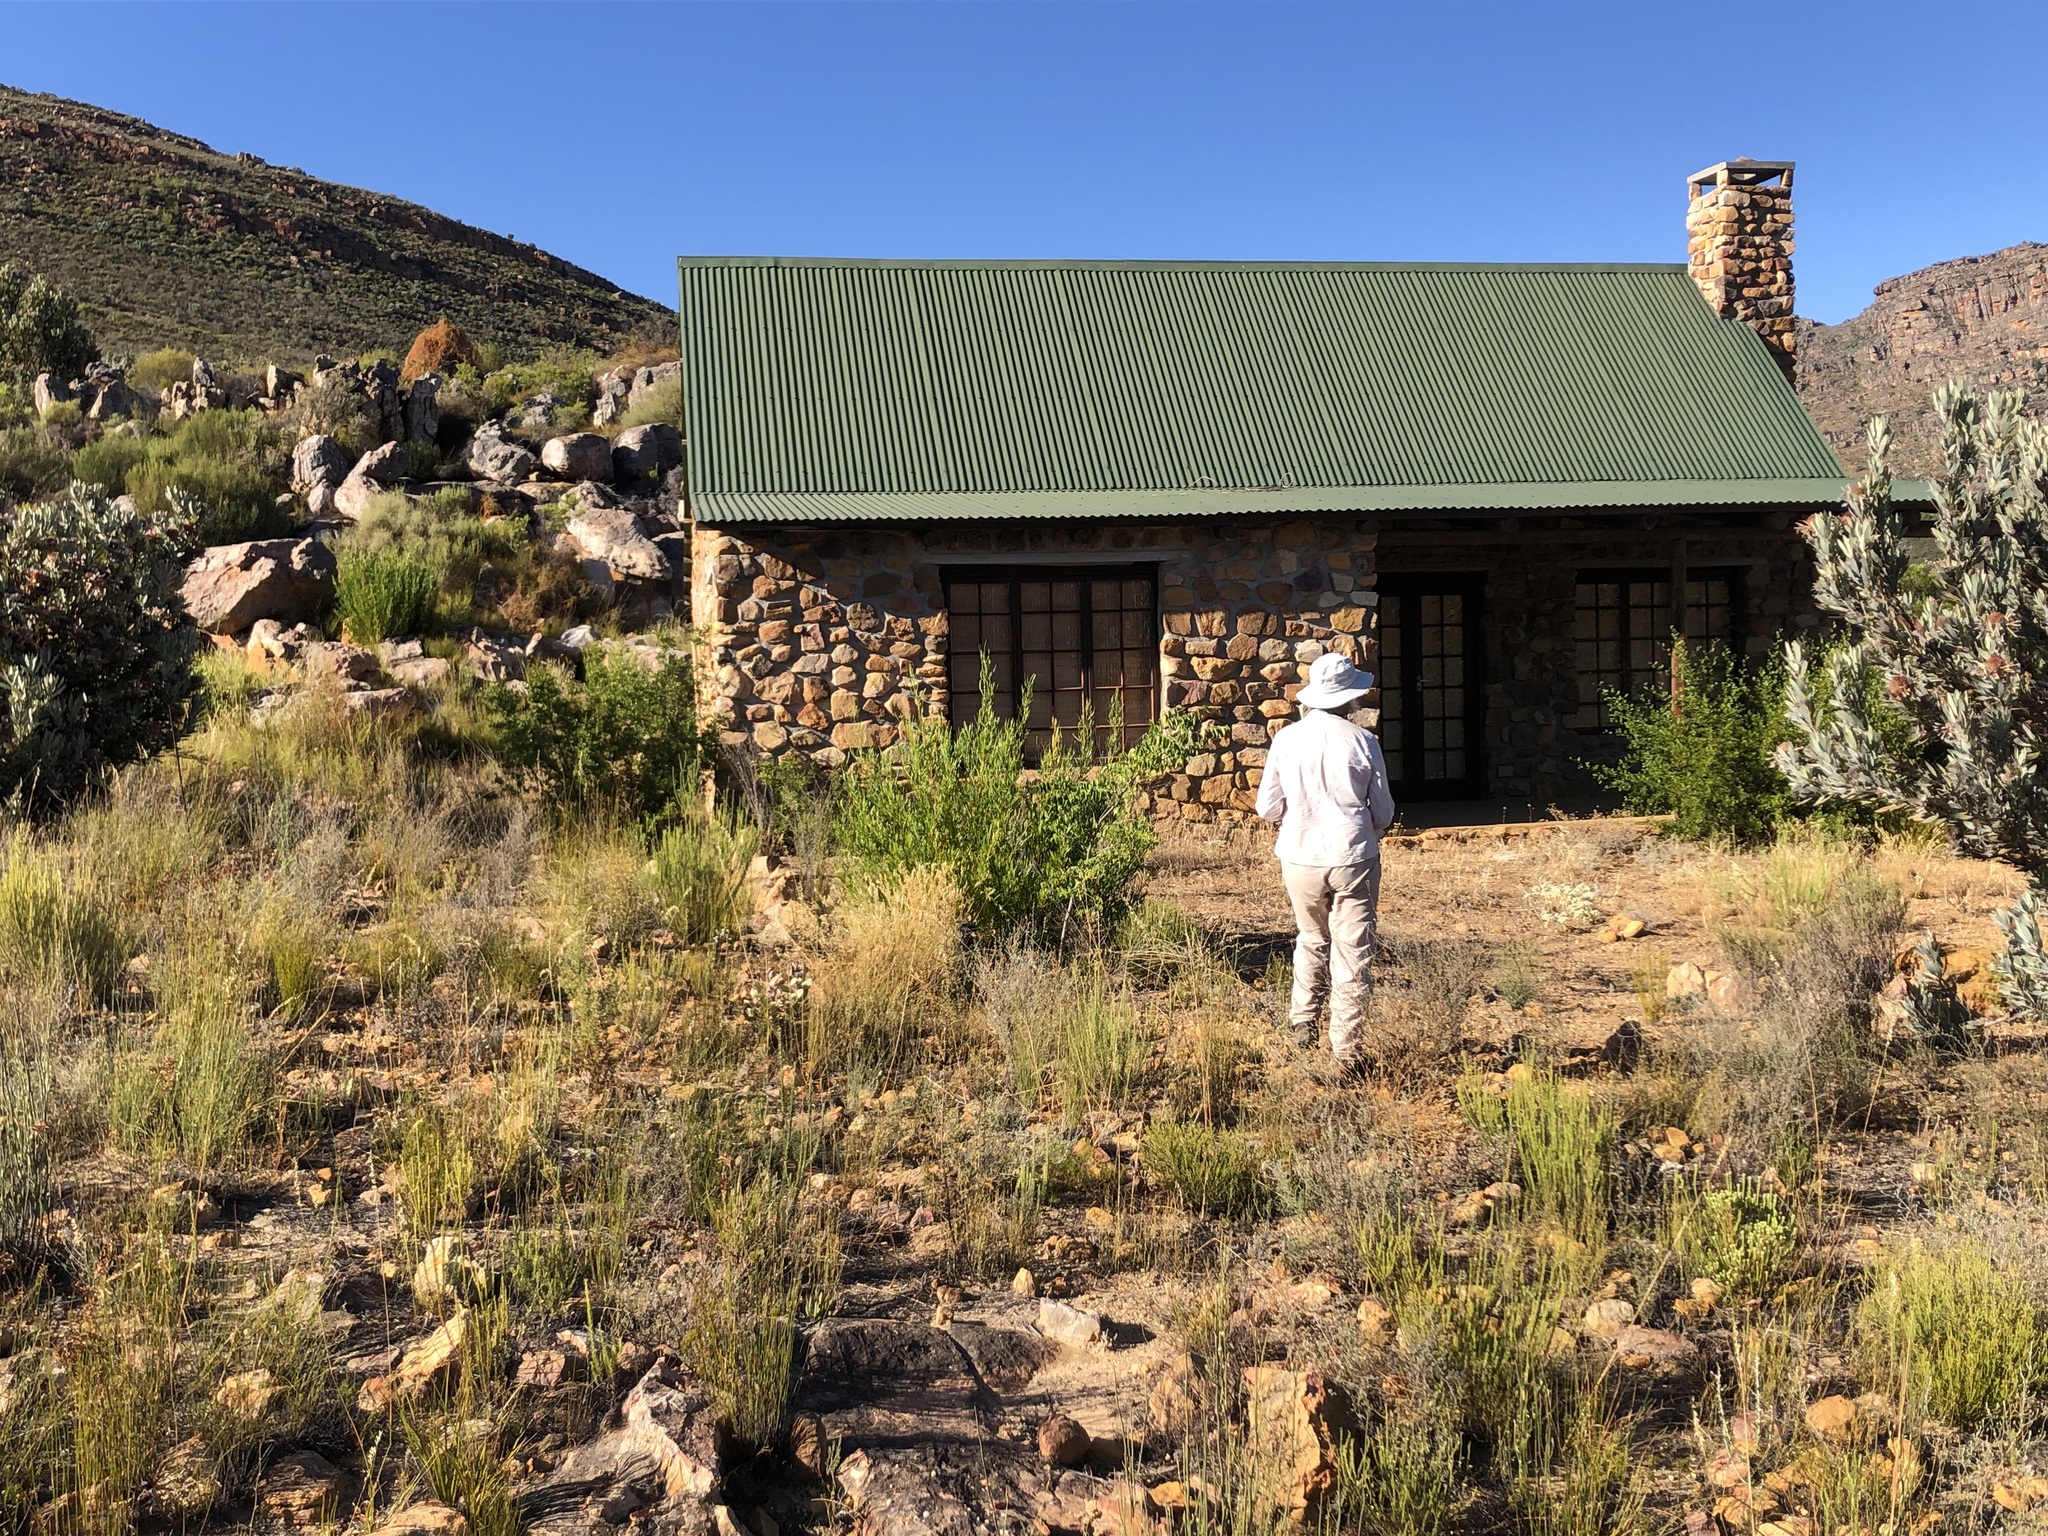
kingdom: Plantae
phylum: Tracheophyta
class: Magnoliopsida
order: Sapindales
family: Sapindaceae
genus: Dodonaea
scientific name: Dodonaea viscosa
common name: Hopbush
